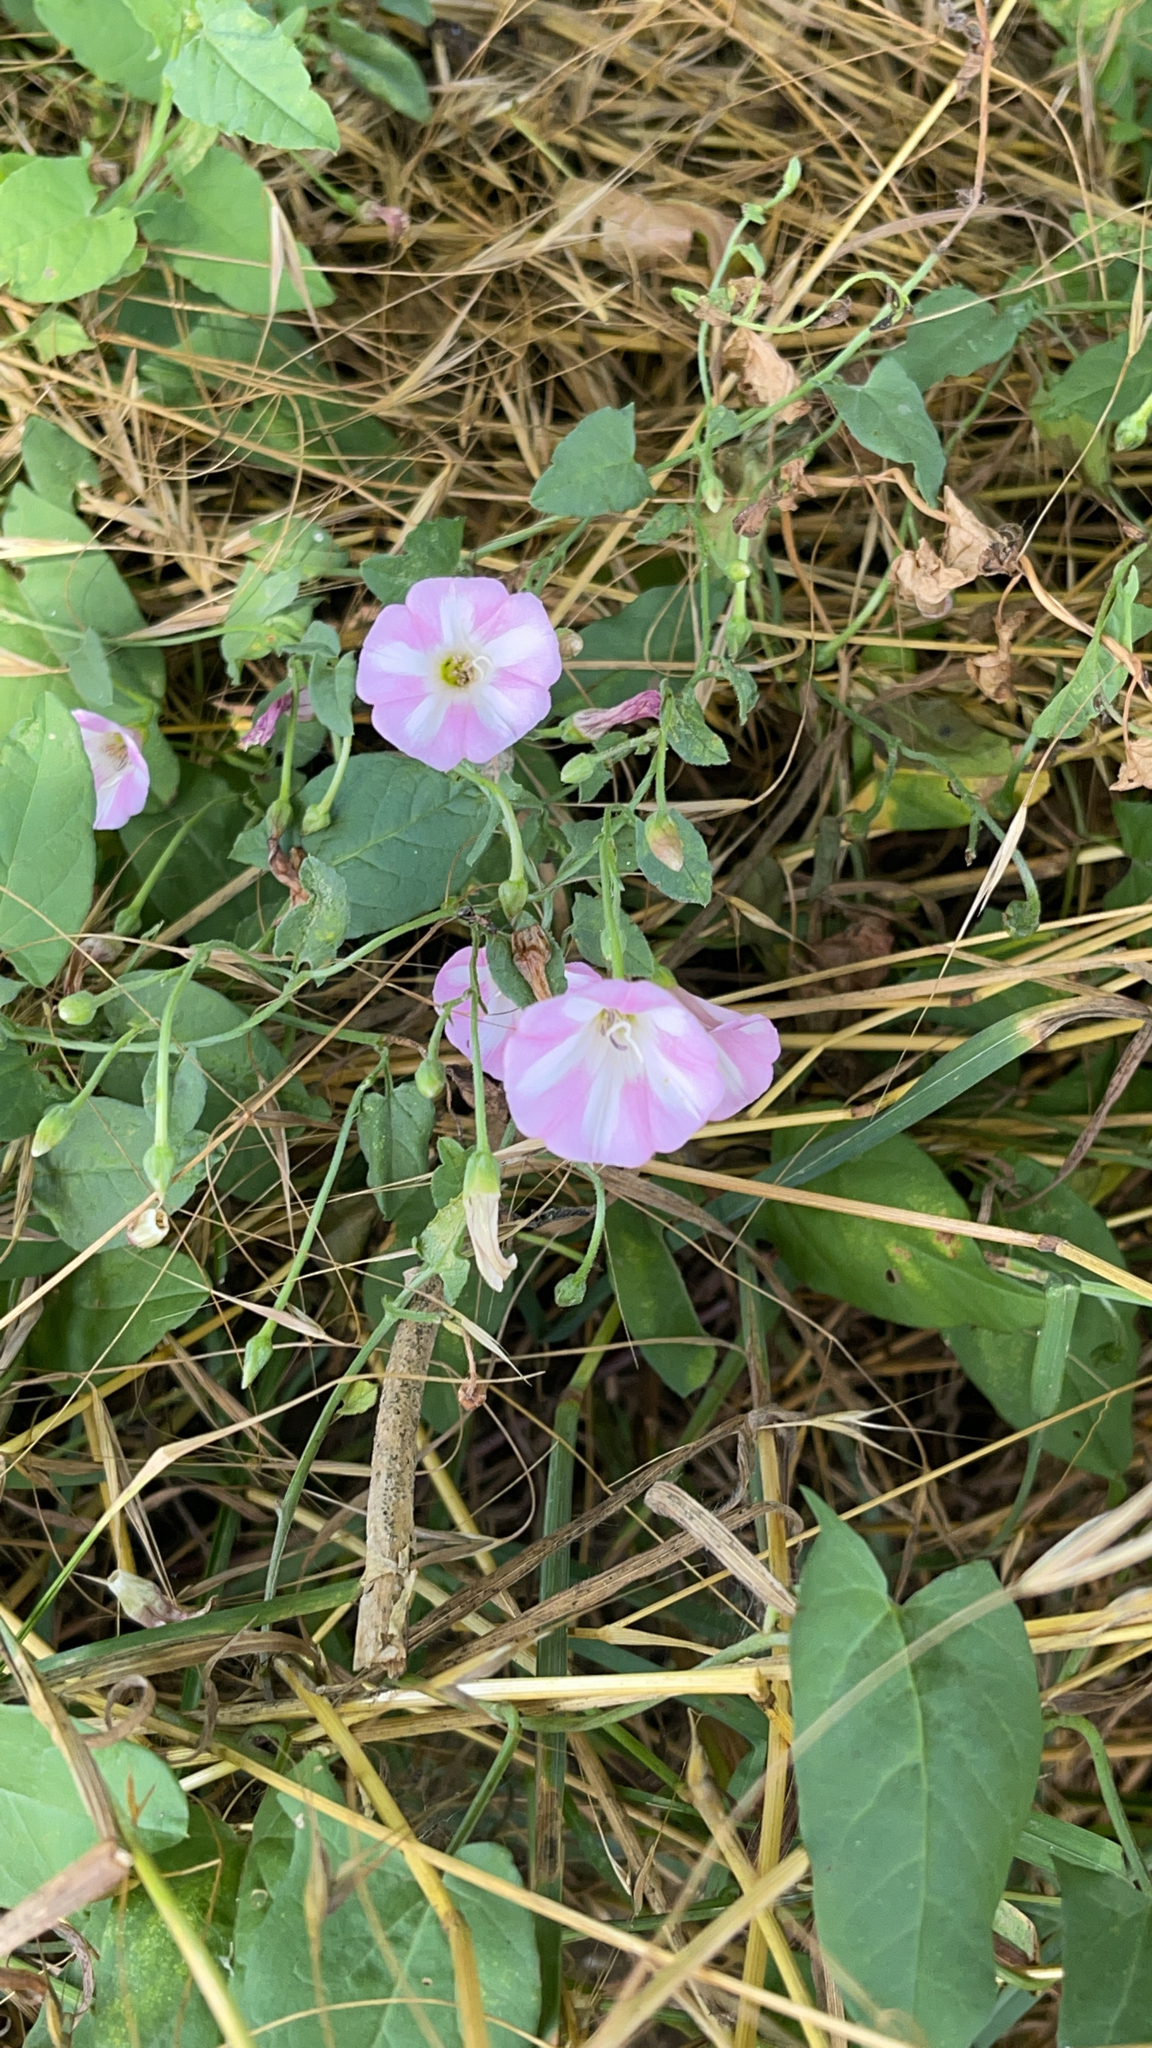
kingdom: Plantae
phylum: Tracheophyta
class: Magnoliopsida
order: Solanales
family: Convolvulaceae
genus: Convolvulus
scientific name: Convolvulus arvensis
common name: Field bindweed
